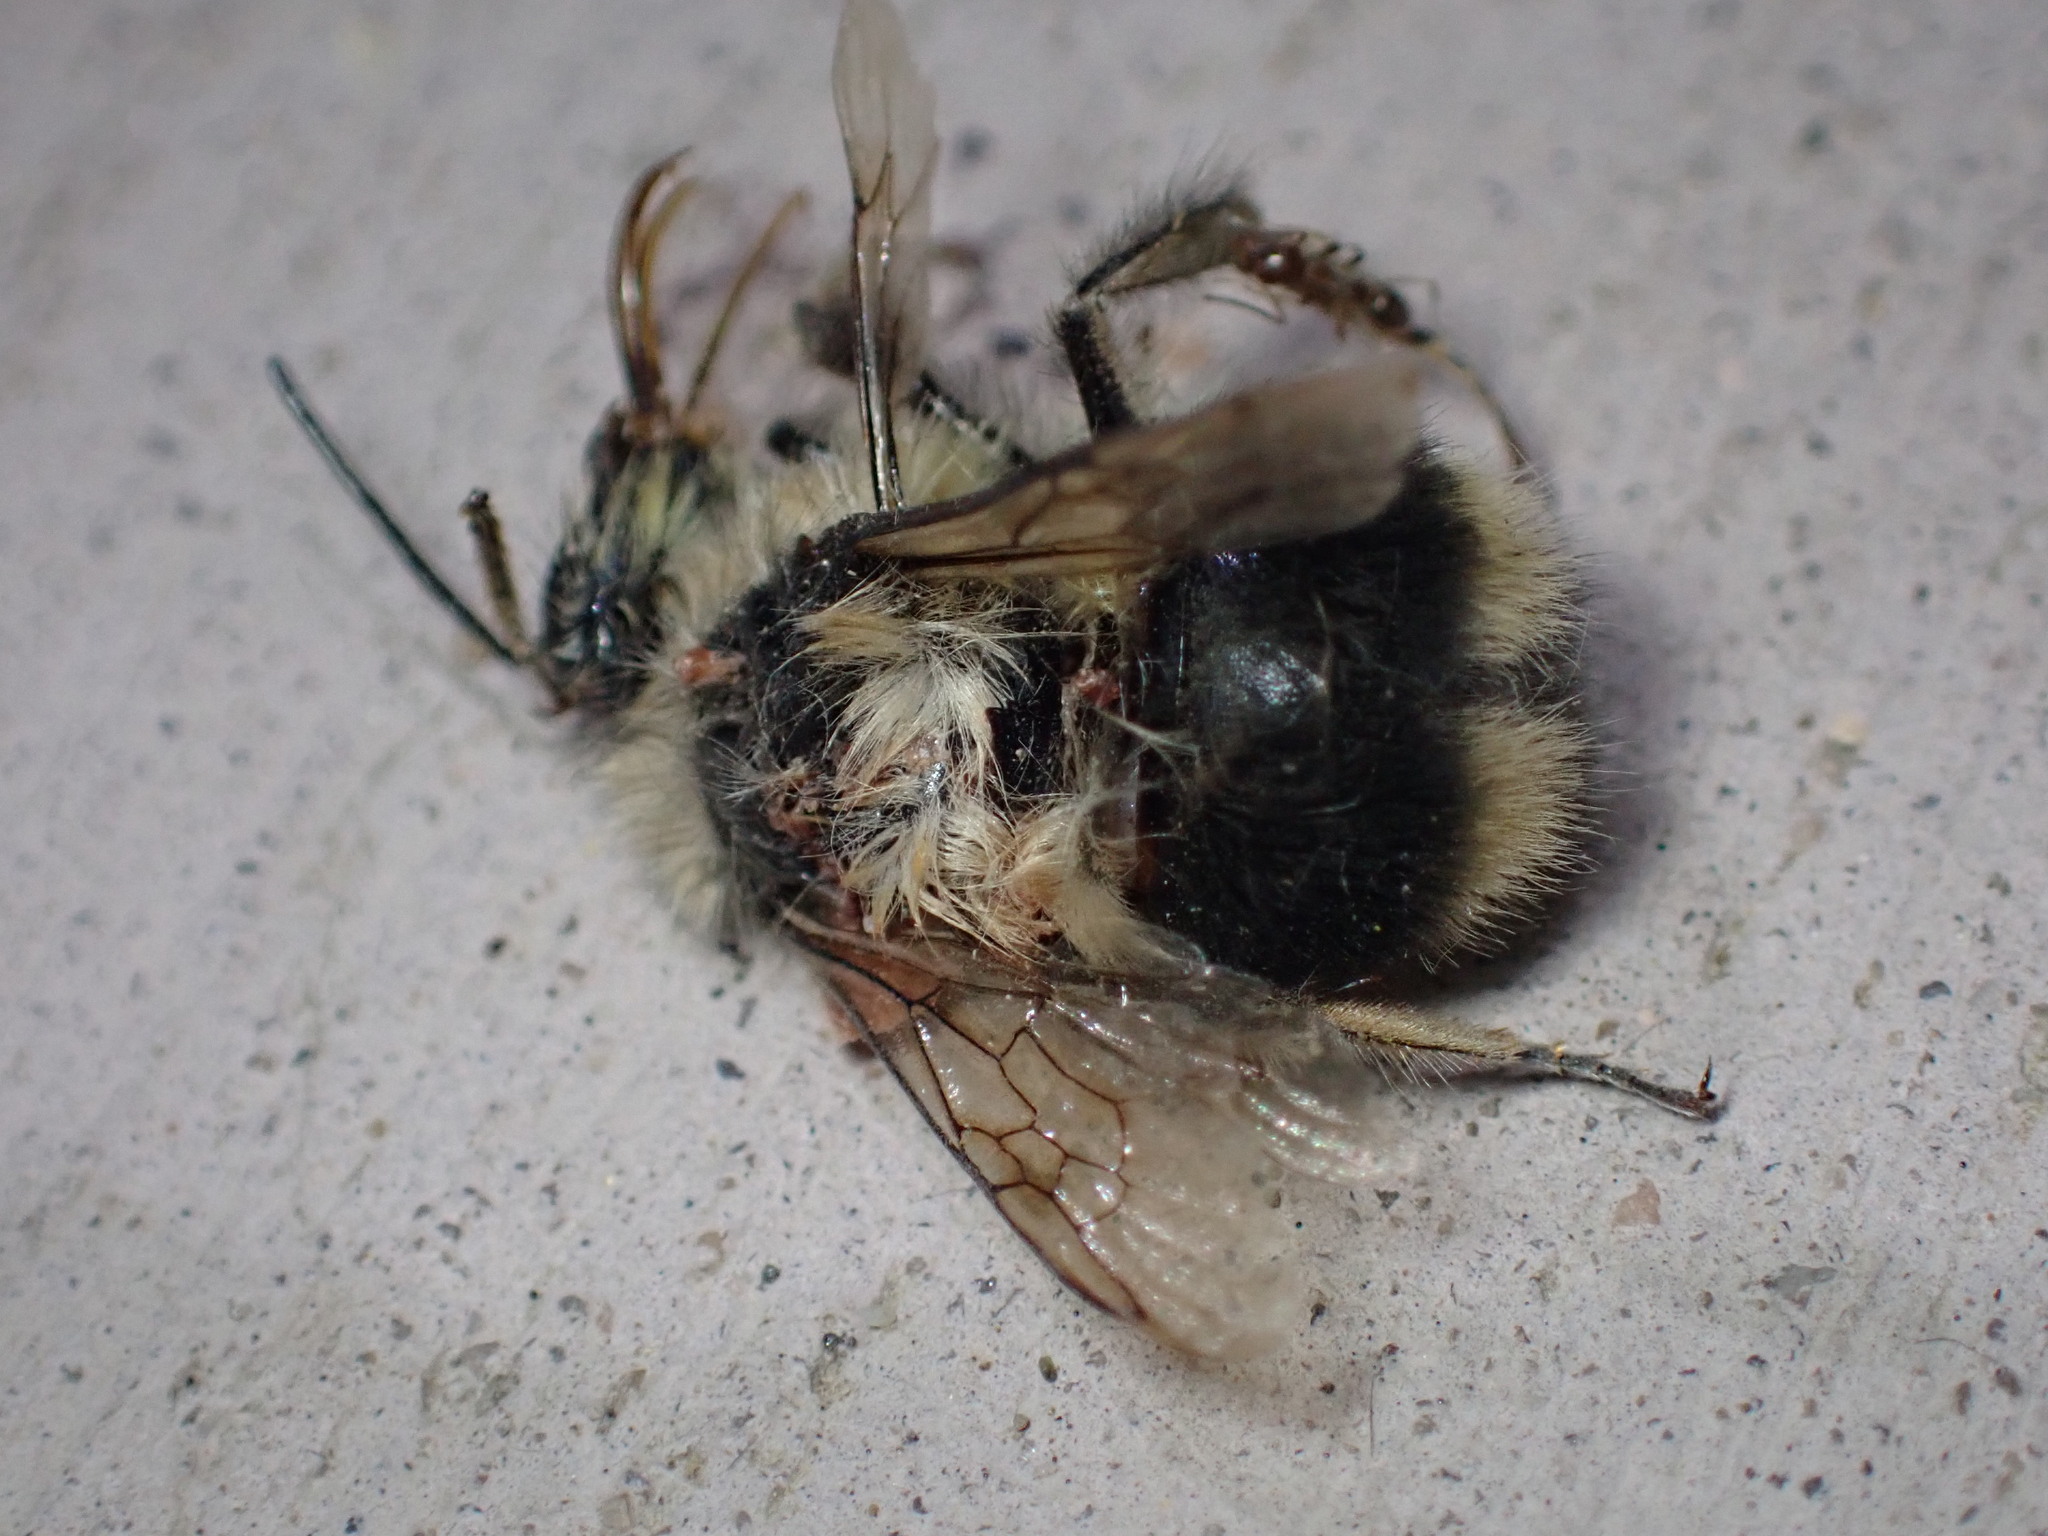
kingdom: Animalia
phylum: Arthropoda
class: Insecta
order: Hymenoptera
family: Apidae
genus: Bombus
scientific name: Bombus melanopygus
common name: Black tail bumble bee
